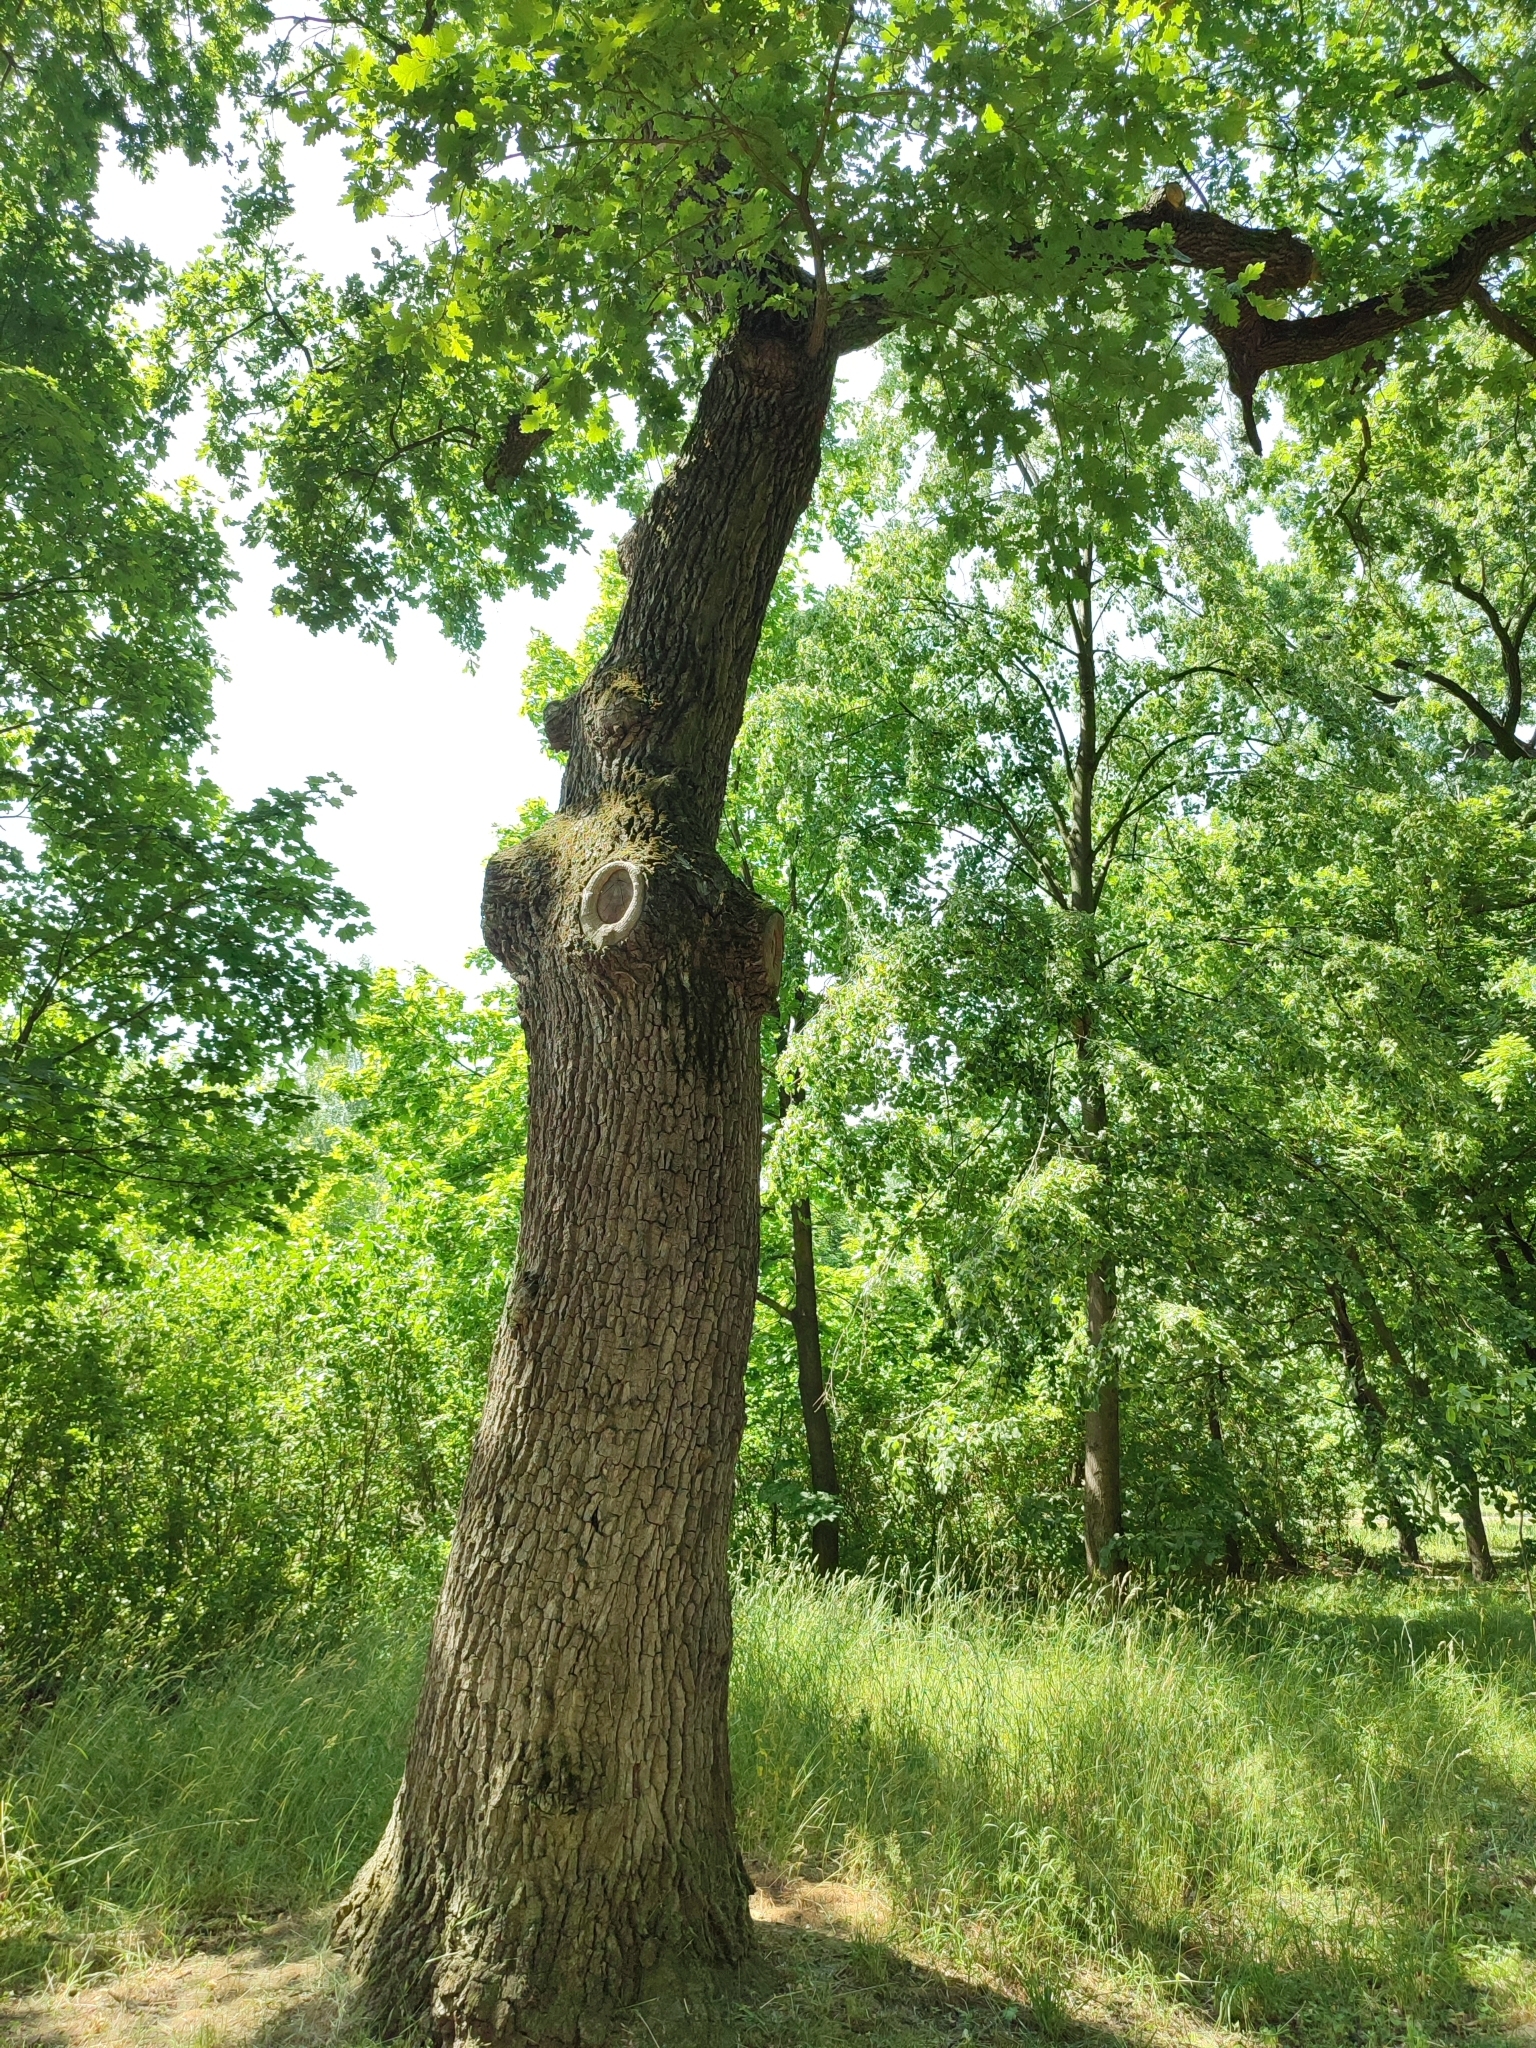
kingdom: Plantae
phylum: Tracheophyta
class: Magnoliopsida
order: Fagales
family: Fagaceae
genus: Quercus
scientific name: Quercus robur
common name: Pedunculate oak
